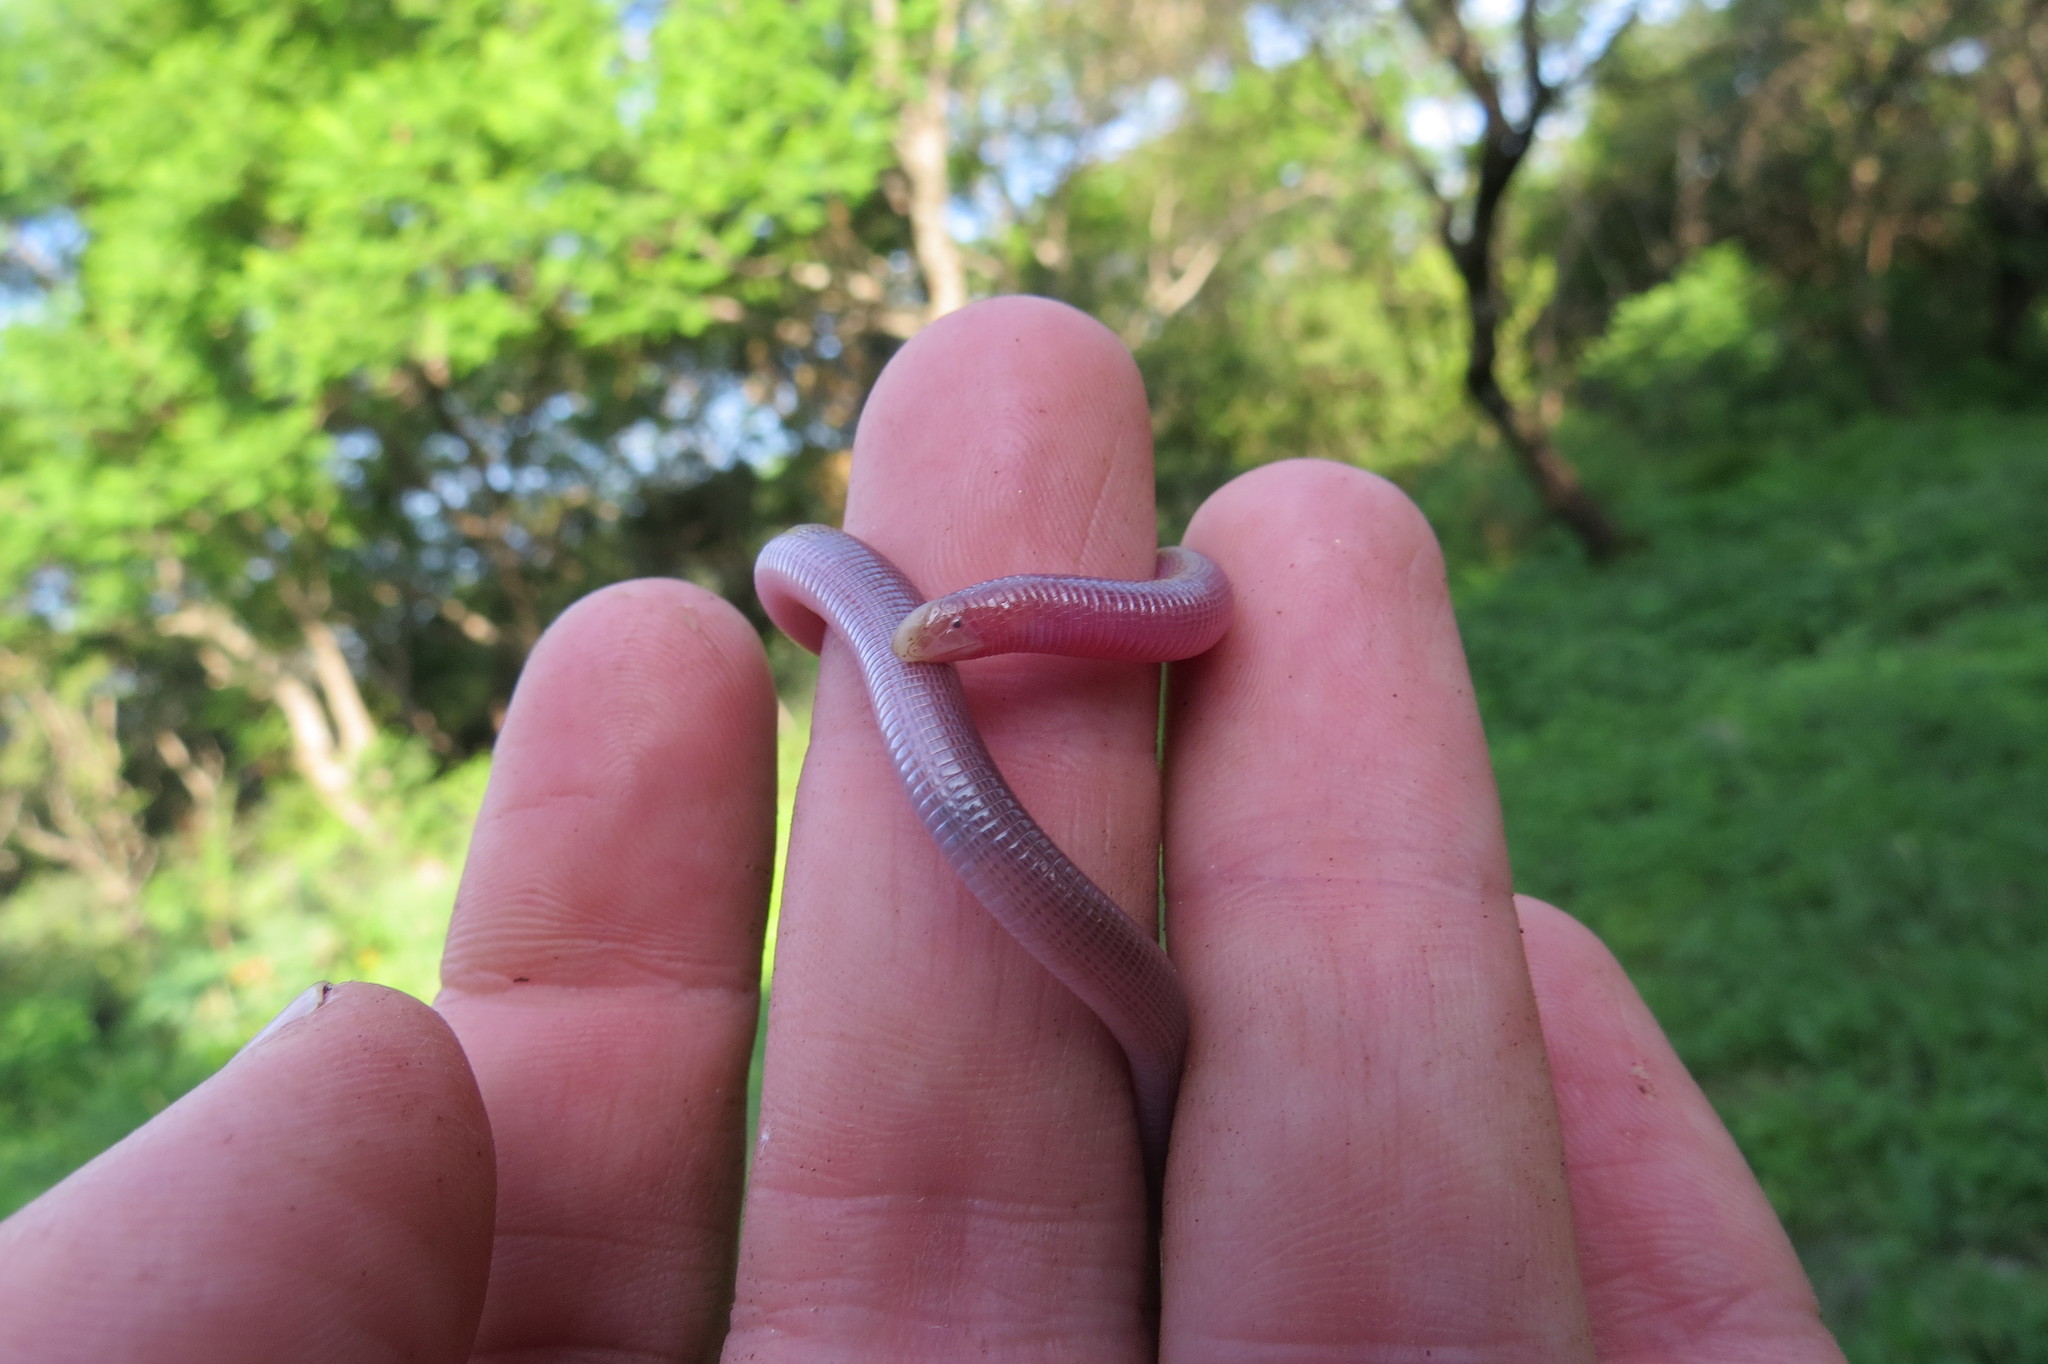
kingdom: Animalia
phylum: Chordata
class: Squamata
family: Amphisbaenidae
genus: Amphisbaena
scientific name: Amphisbaena kingii
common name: King's worm lizard
